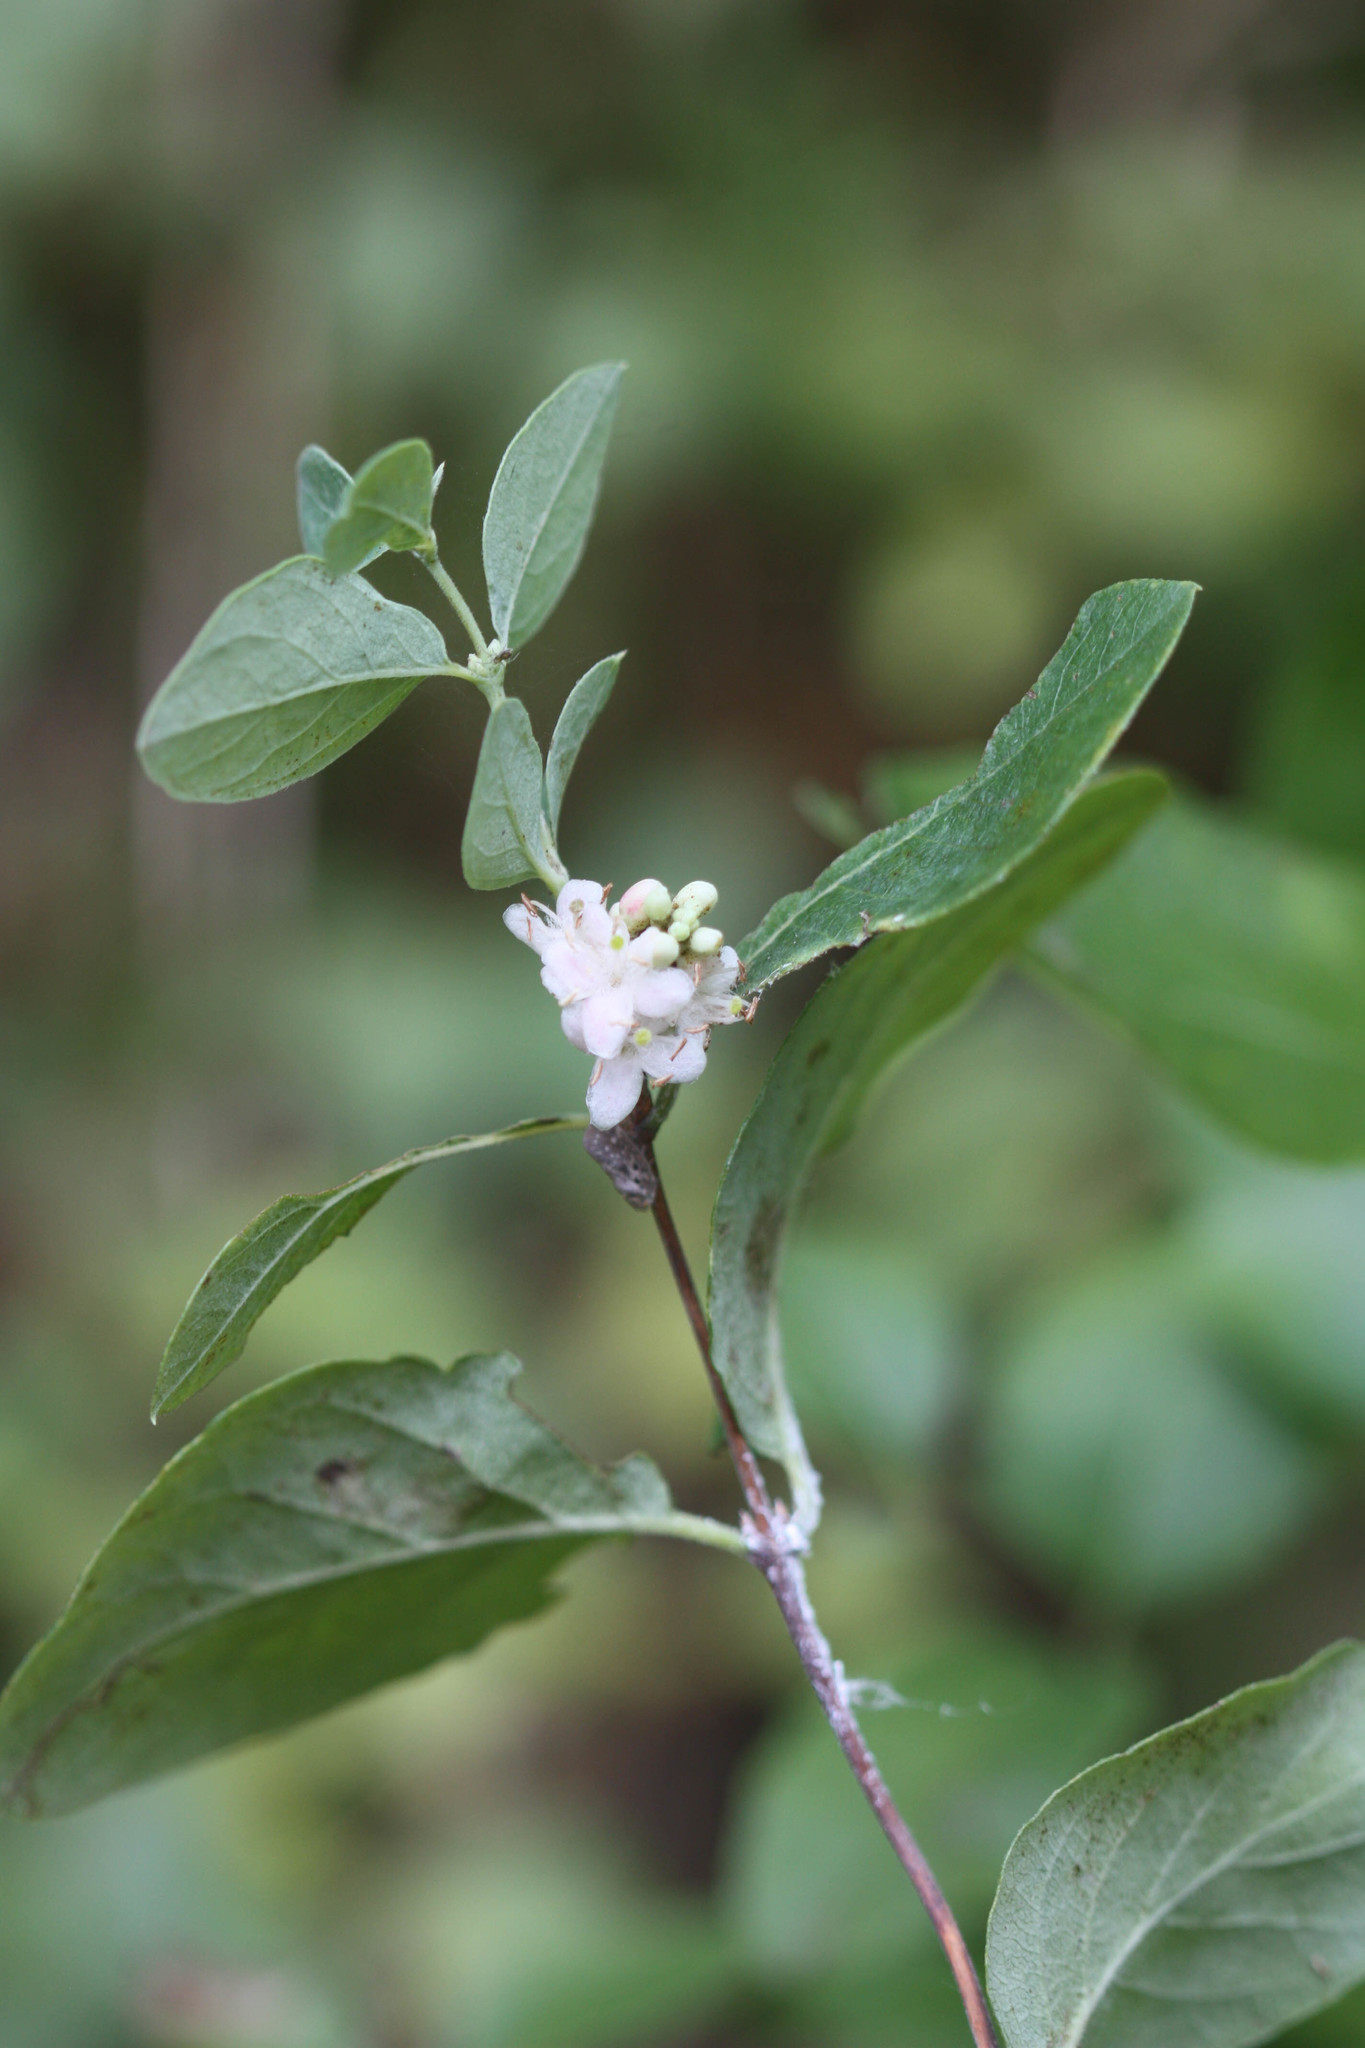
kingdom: Plantae
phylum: Tracheophyta
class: Magnoliopsida
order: Dipsacales
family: Caprifoliaceae
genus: Symphoricarpos
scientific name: Symphoricarpos occidentalis
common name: Wolfberry
